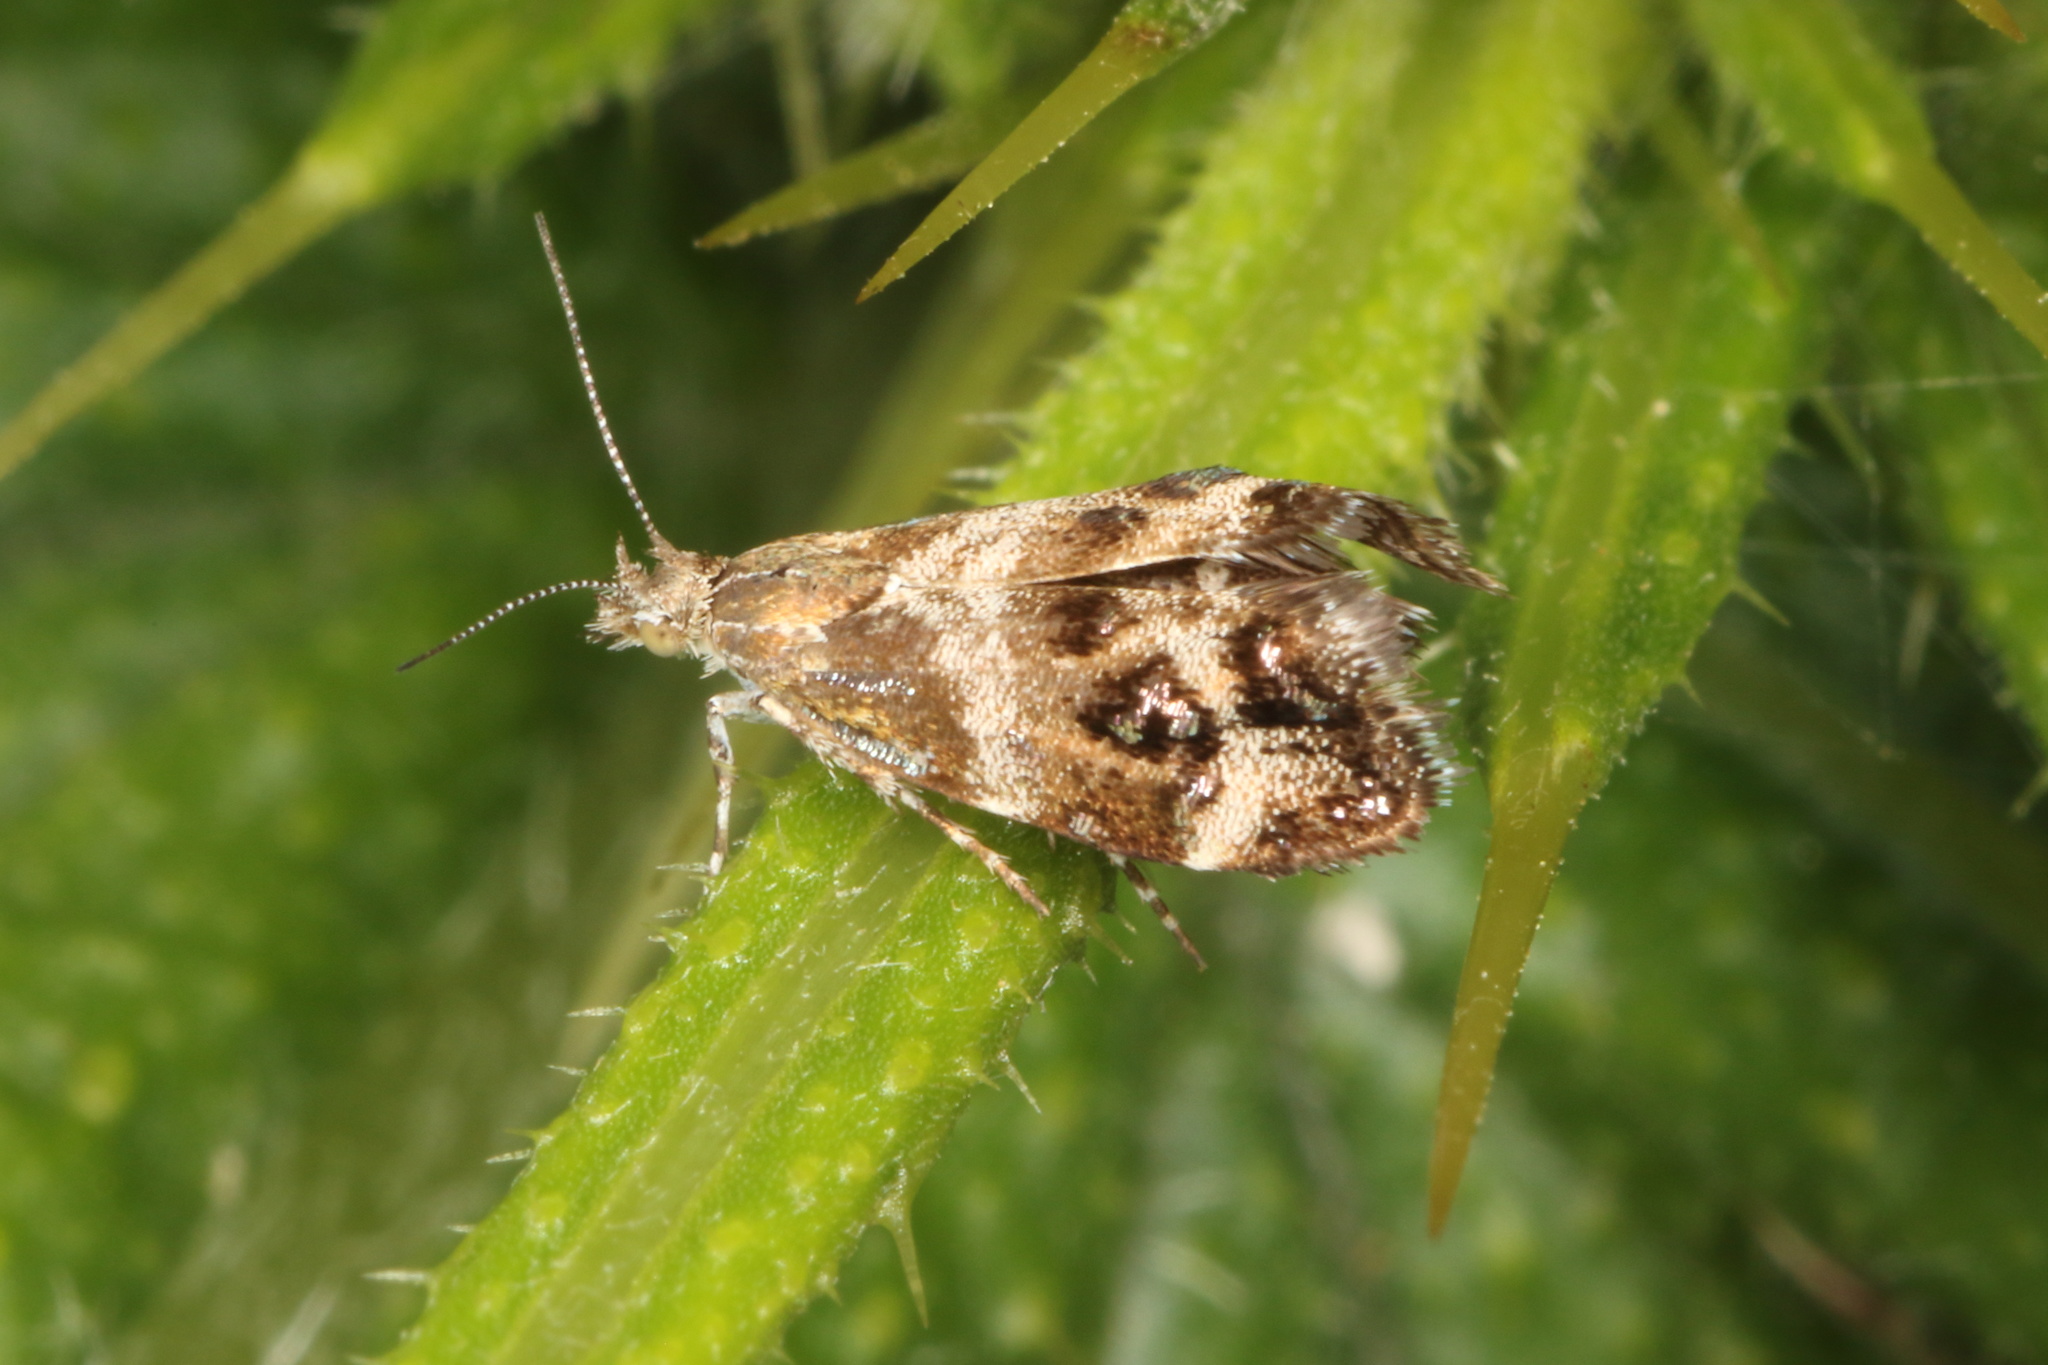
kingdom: Animalia
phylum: Arthropoda
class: Insecta
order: Lepidoptera
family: Choreutidae
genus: Tebenna
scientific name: Tebenna micalis
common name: Vagrant twitcher
